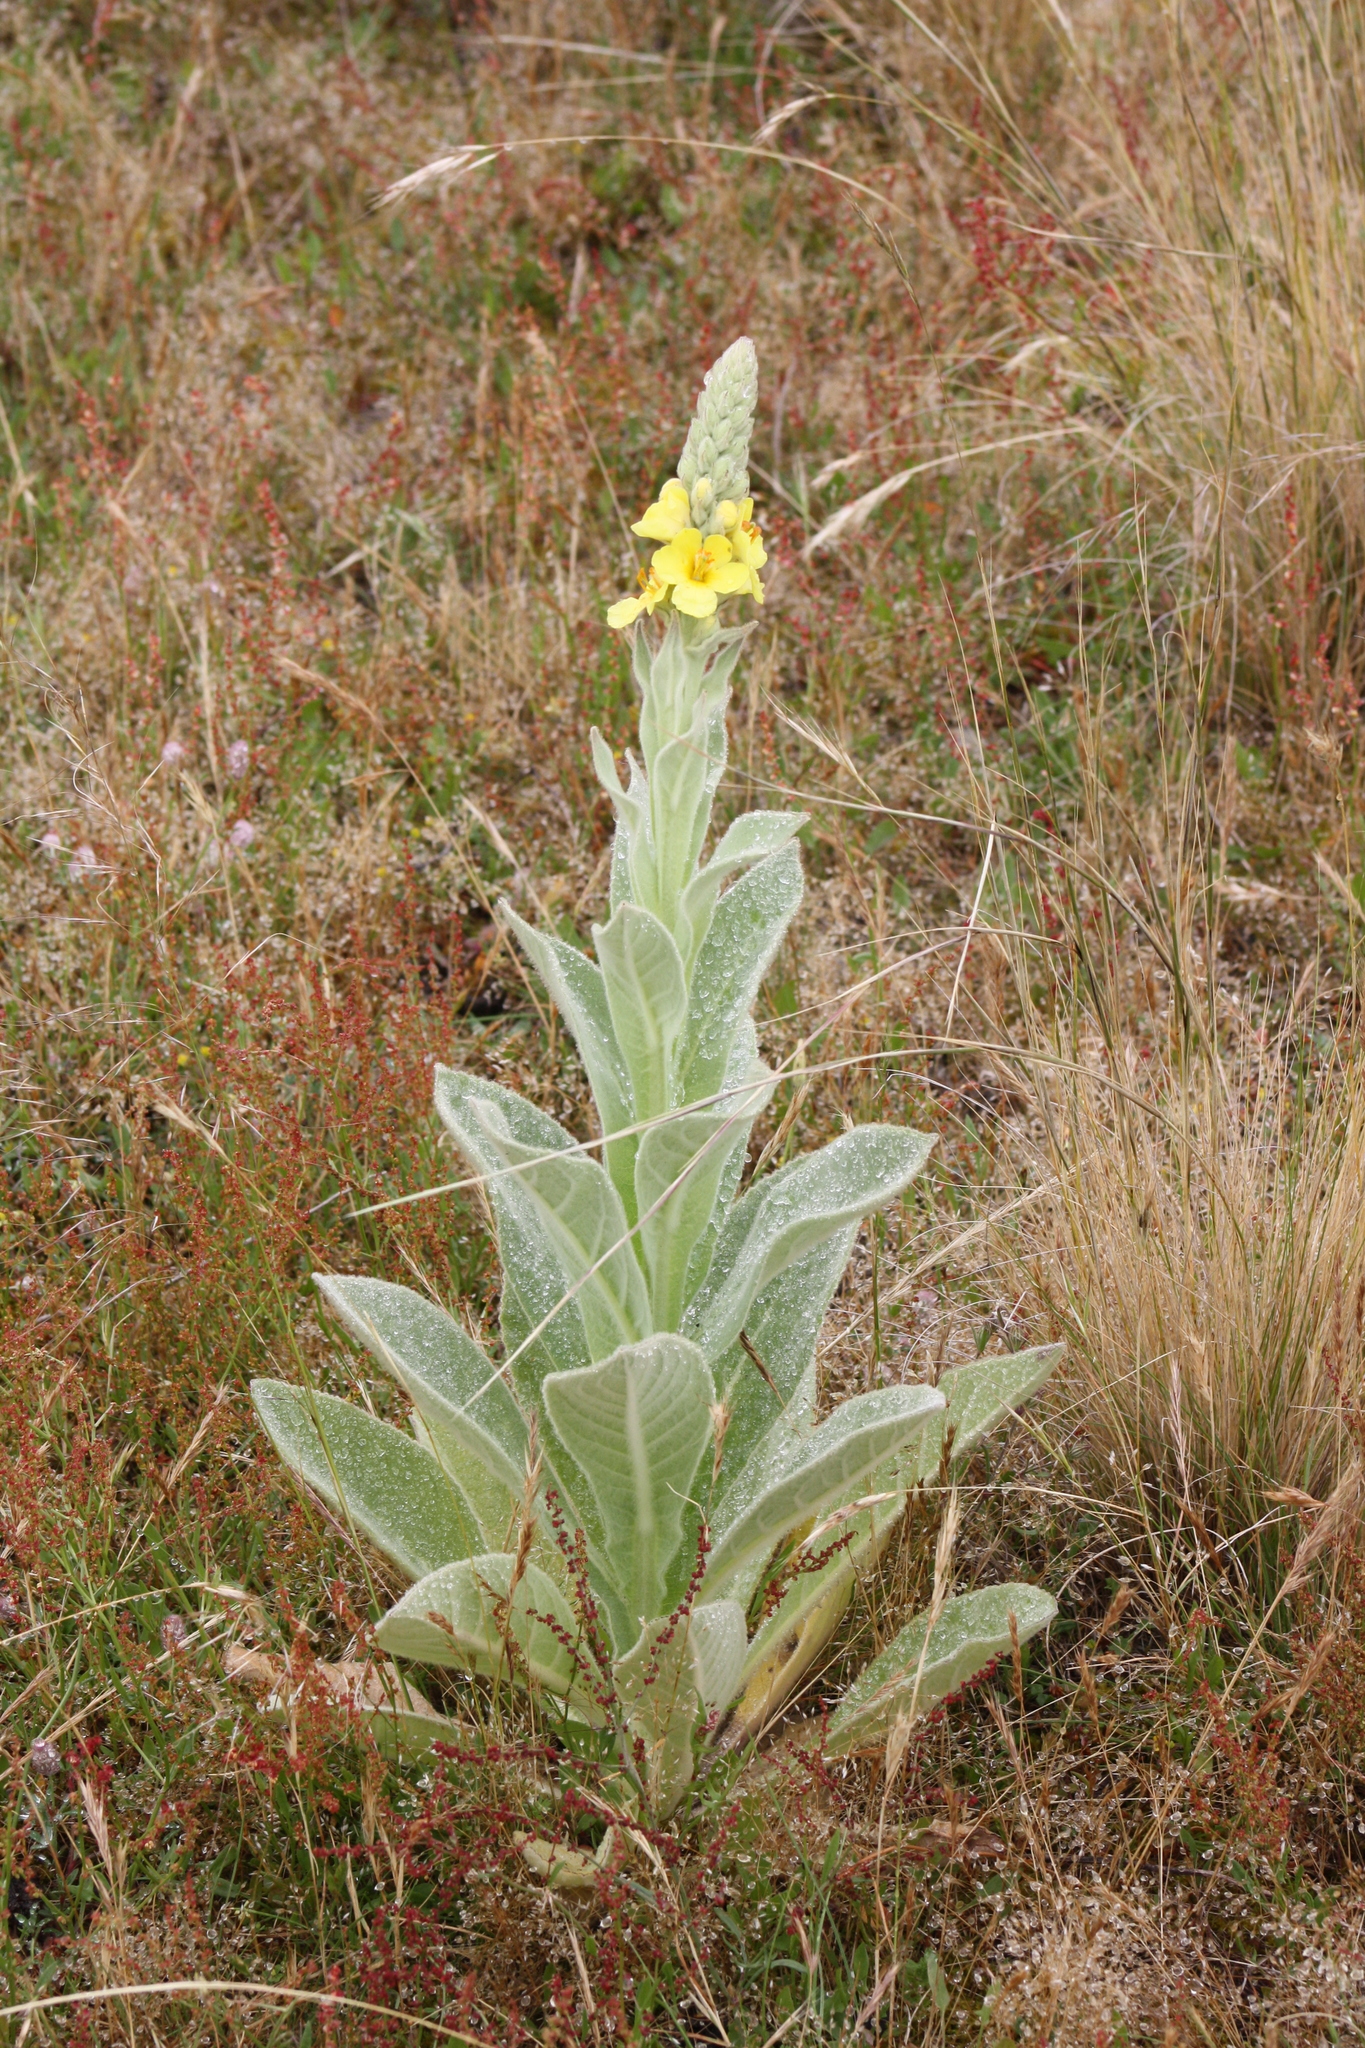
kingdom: Plantae
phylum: Tracheophyta
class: Magnoliopsida
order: Lamiales
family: Scrophulariaceae
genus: Verbascum
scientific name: Verbascum thapsus
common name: Common mullein
